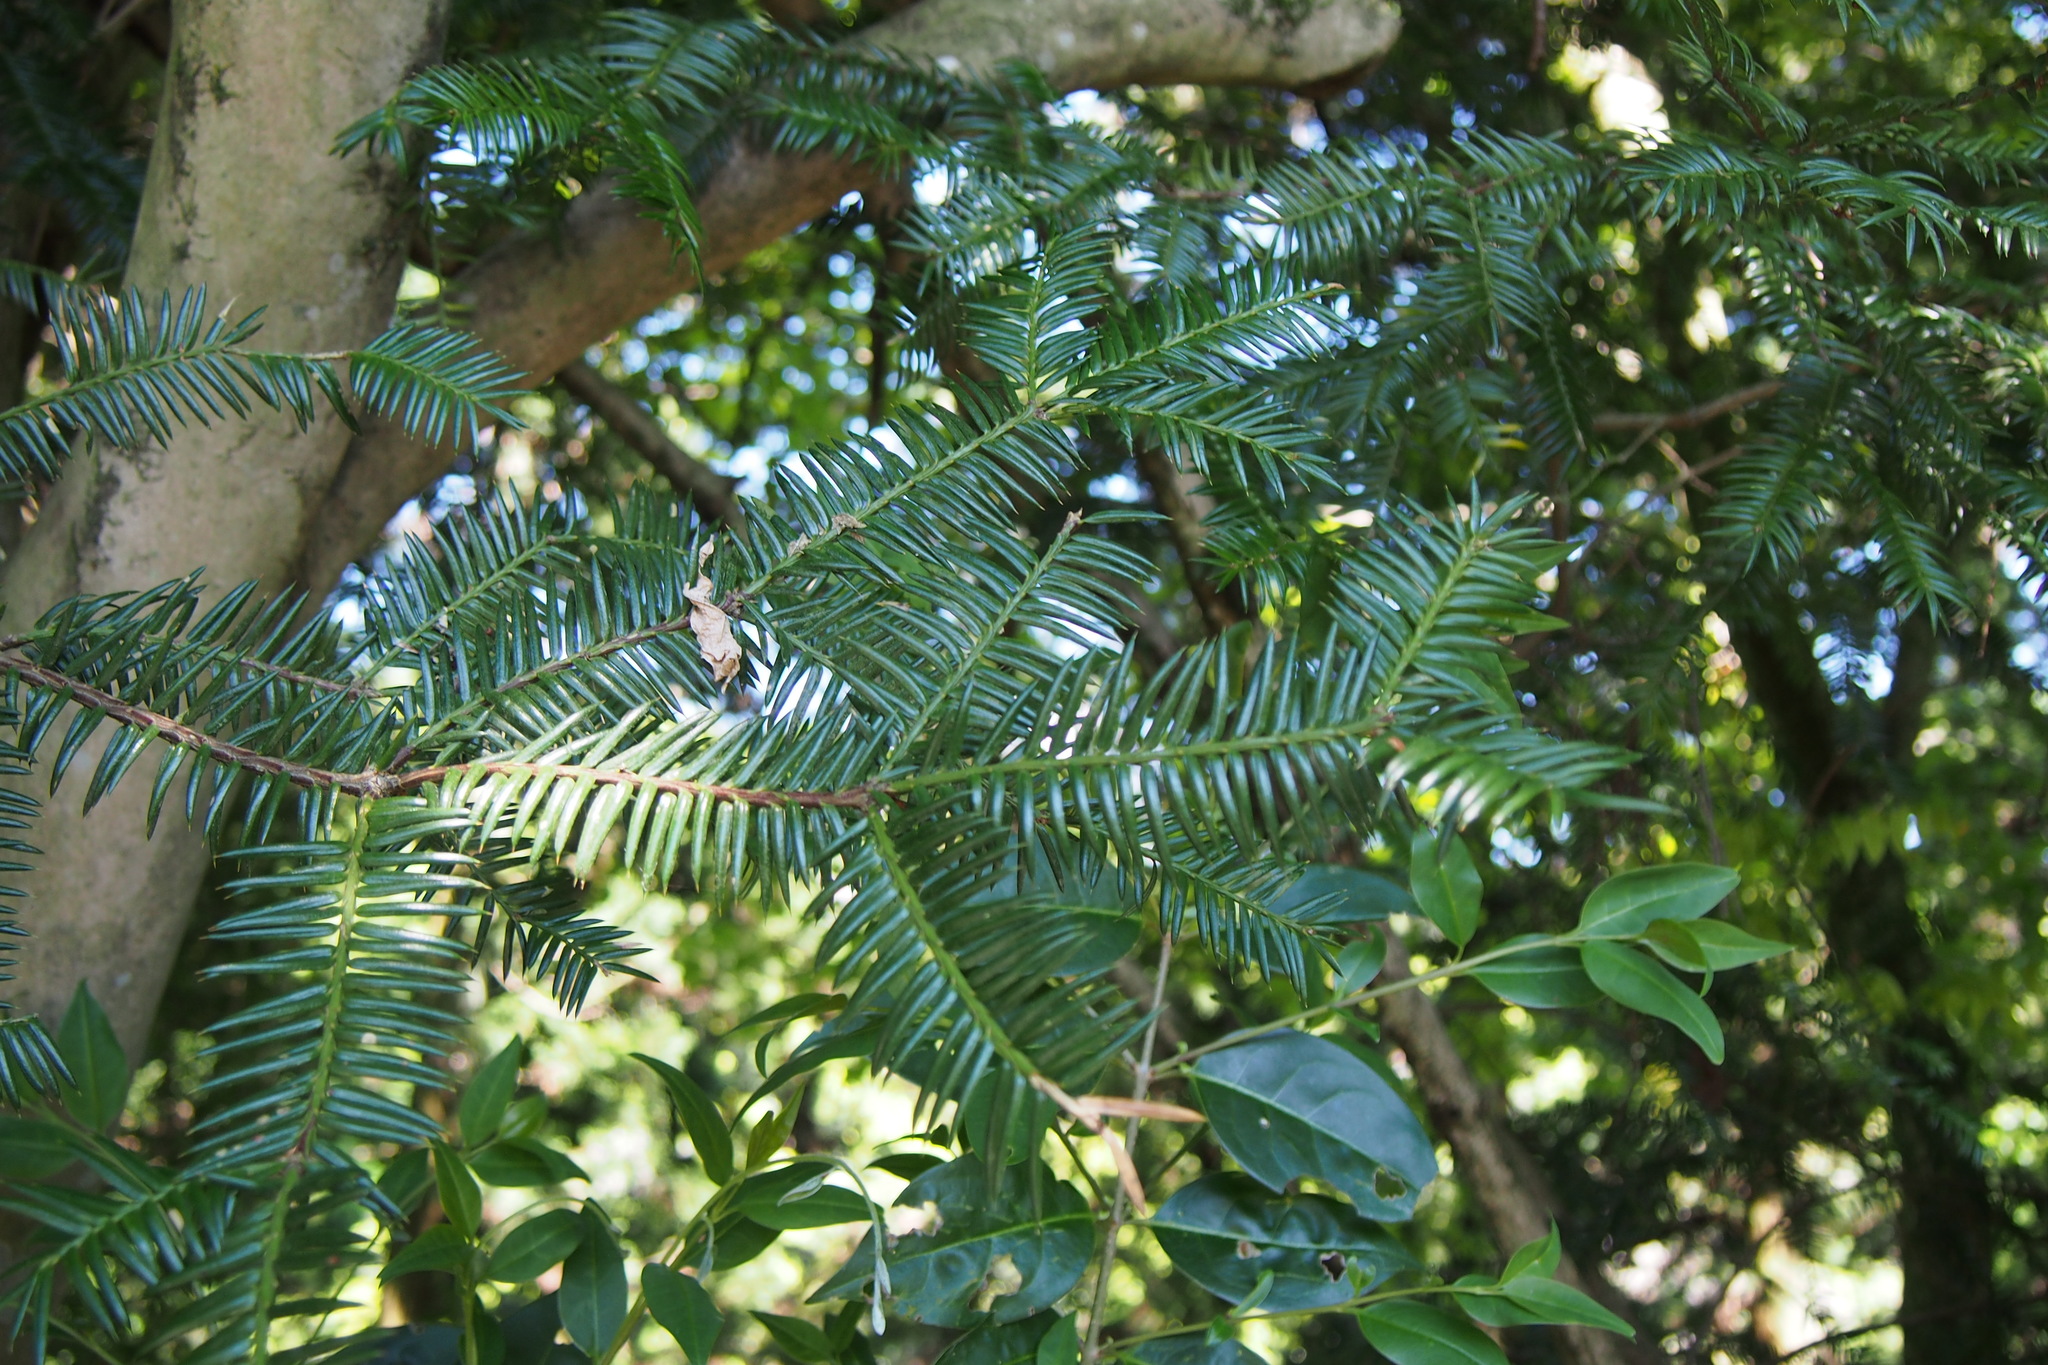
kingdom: Plantae
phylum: Tracheophyta
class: Pinopsida
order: Pinales
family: Taxaceae
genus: Torreya
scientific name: Torreya nucifera
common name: Japanese nutmeg tree
